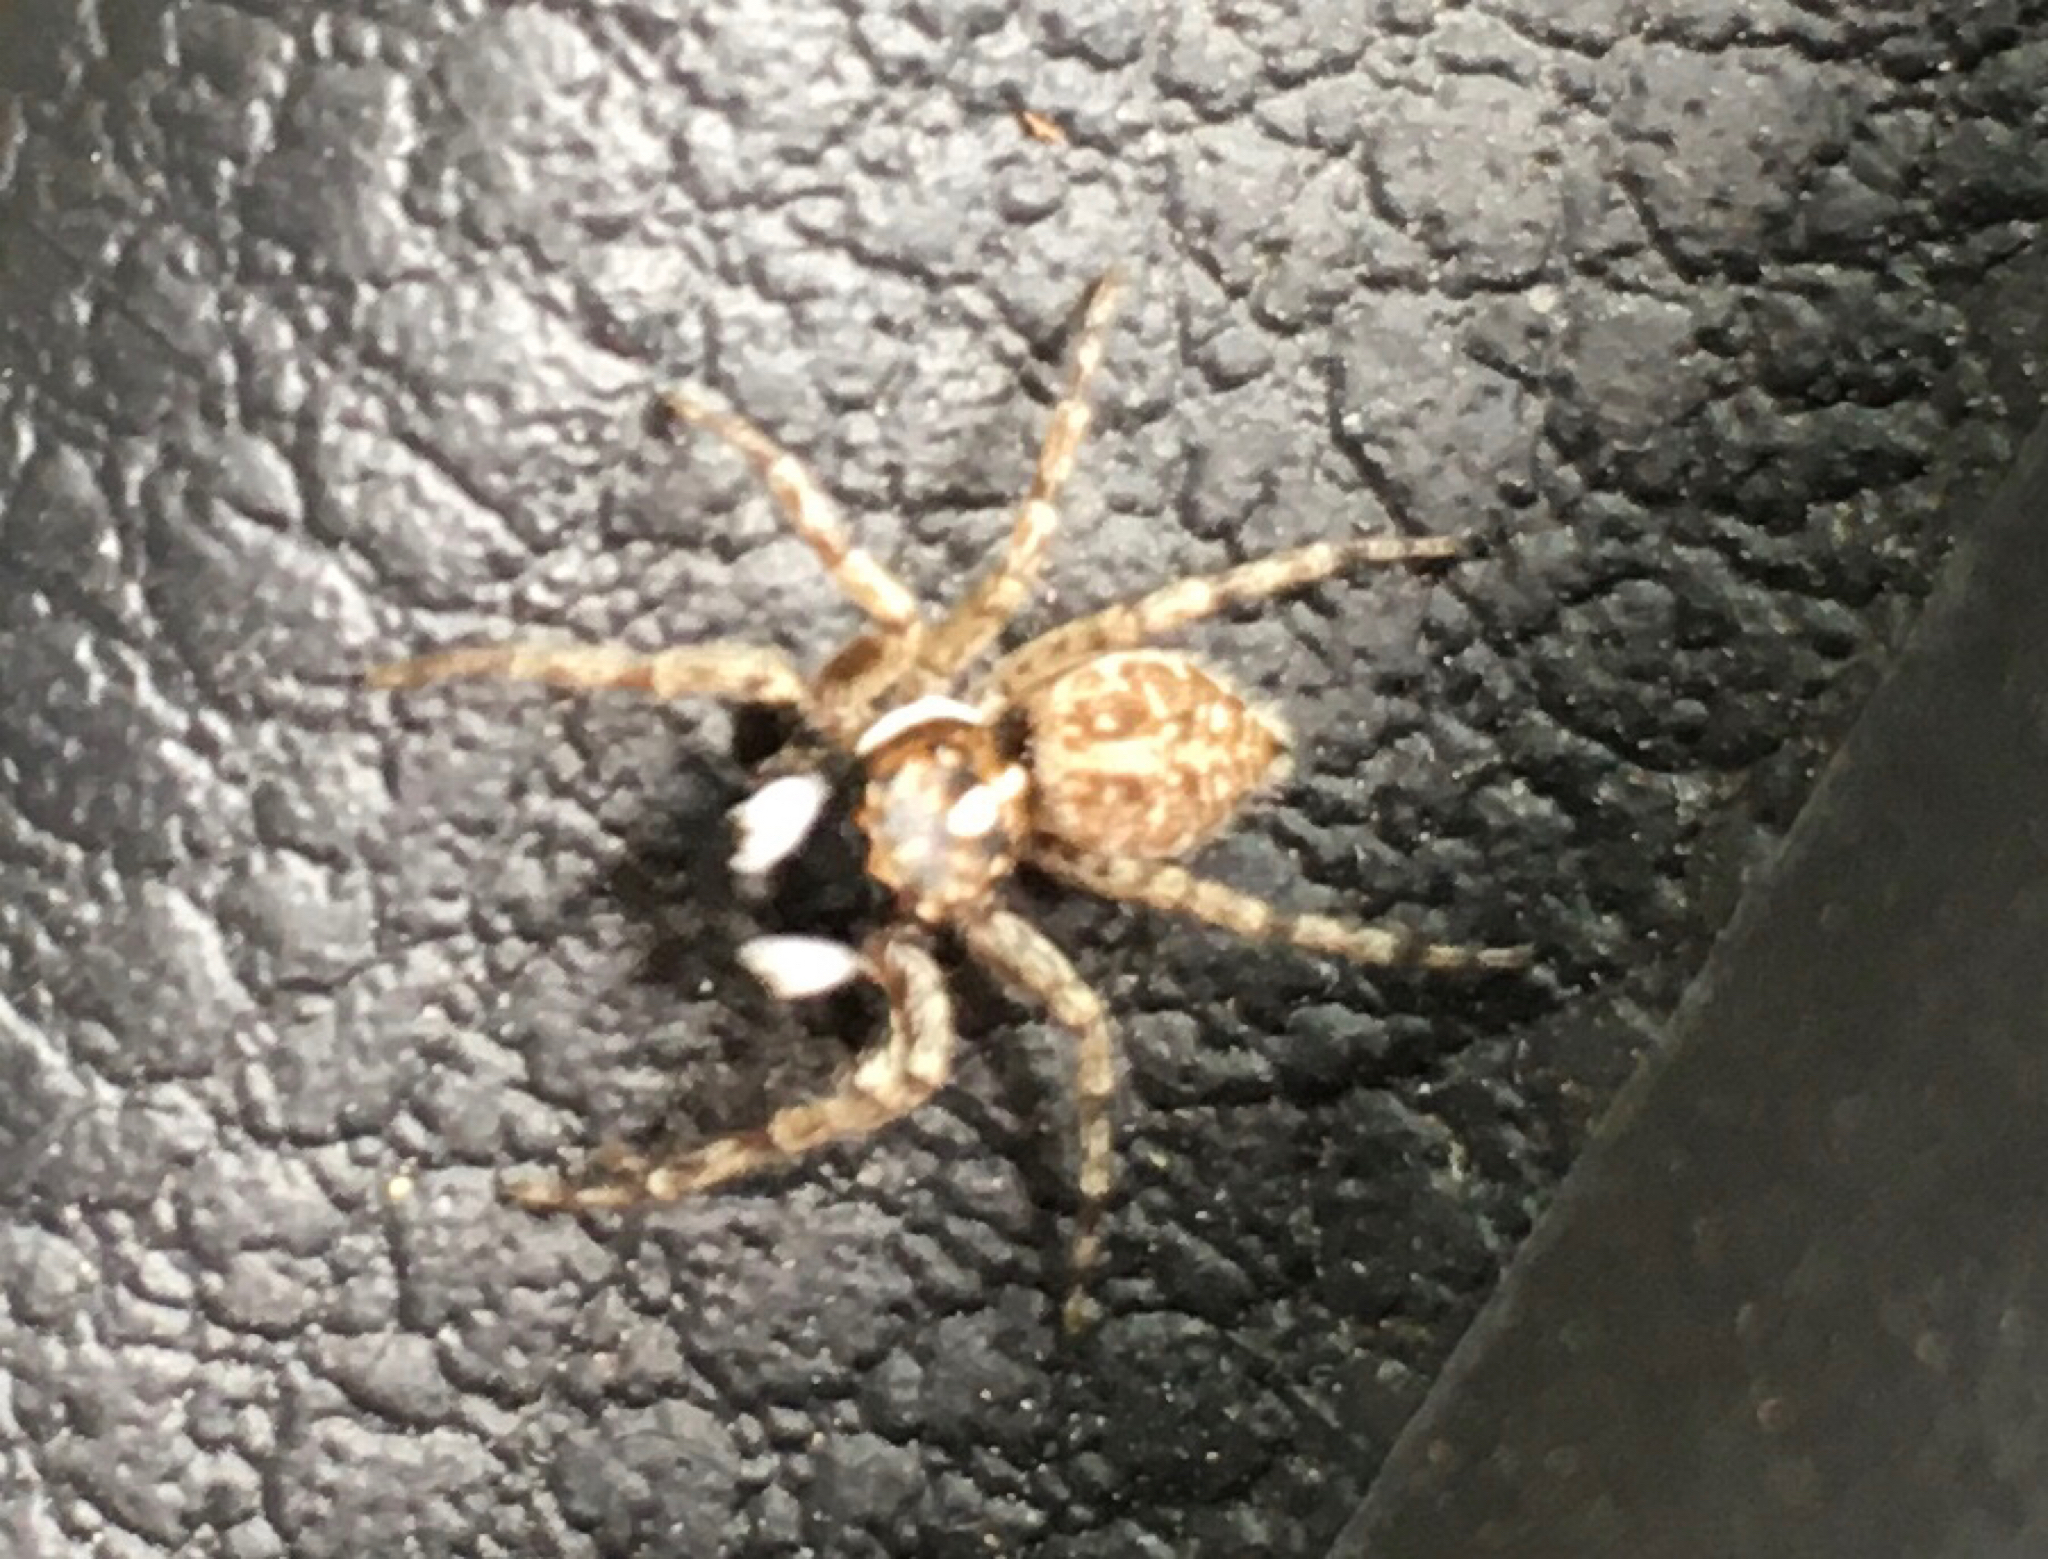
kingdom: Animalia
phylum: Arthropoda
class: Arachnida
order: Araneae
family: Salticidae
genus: Menemerus
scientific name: Menemerus semilimbatus
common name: Jumping spider
